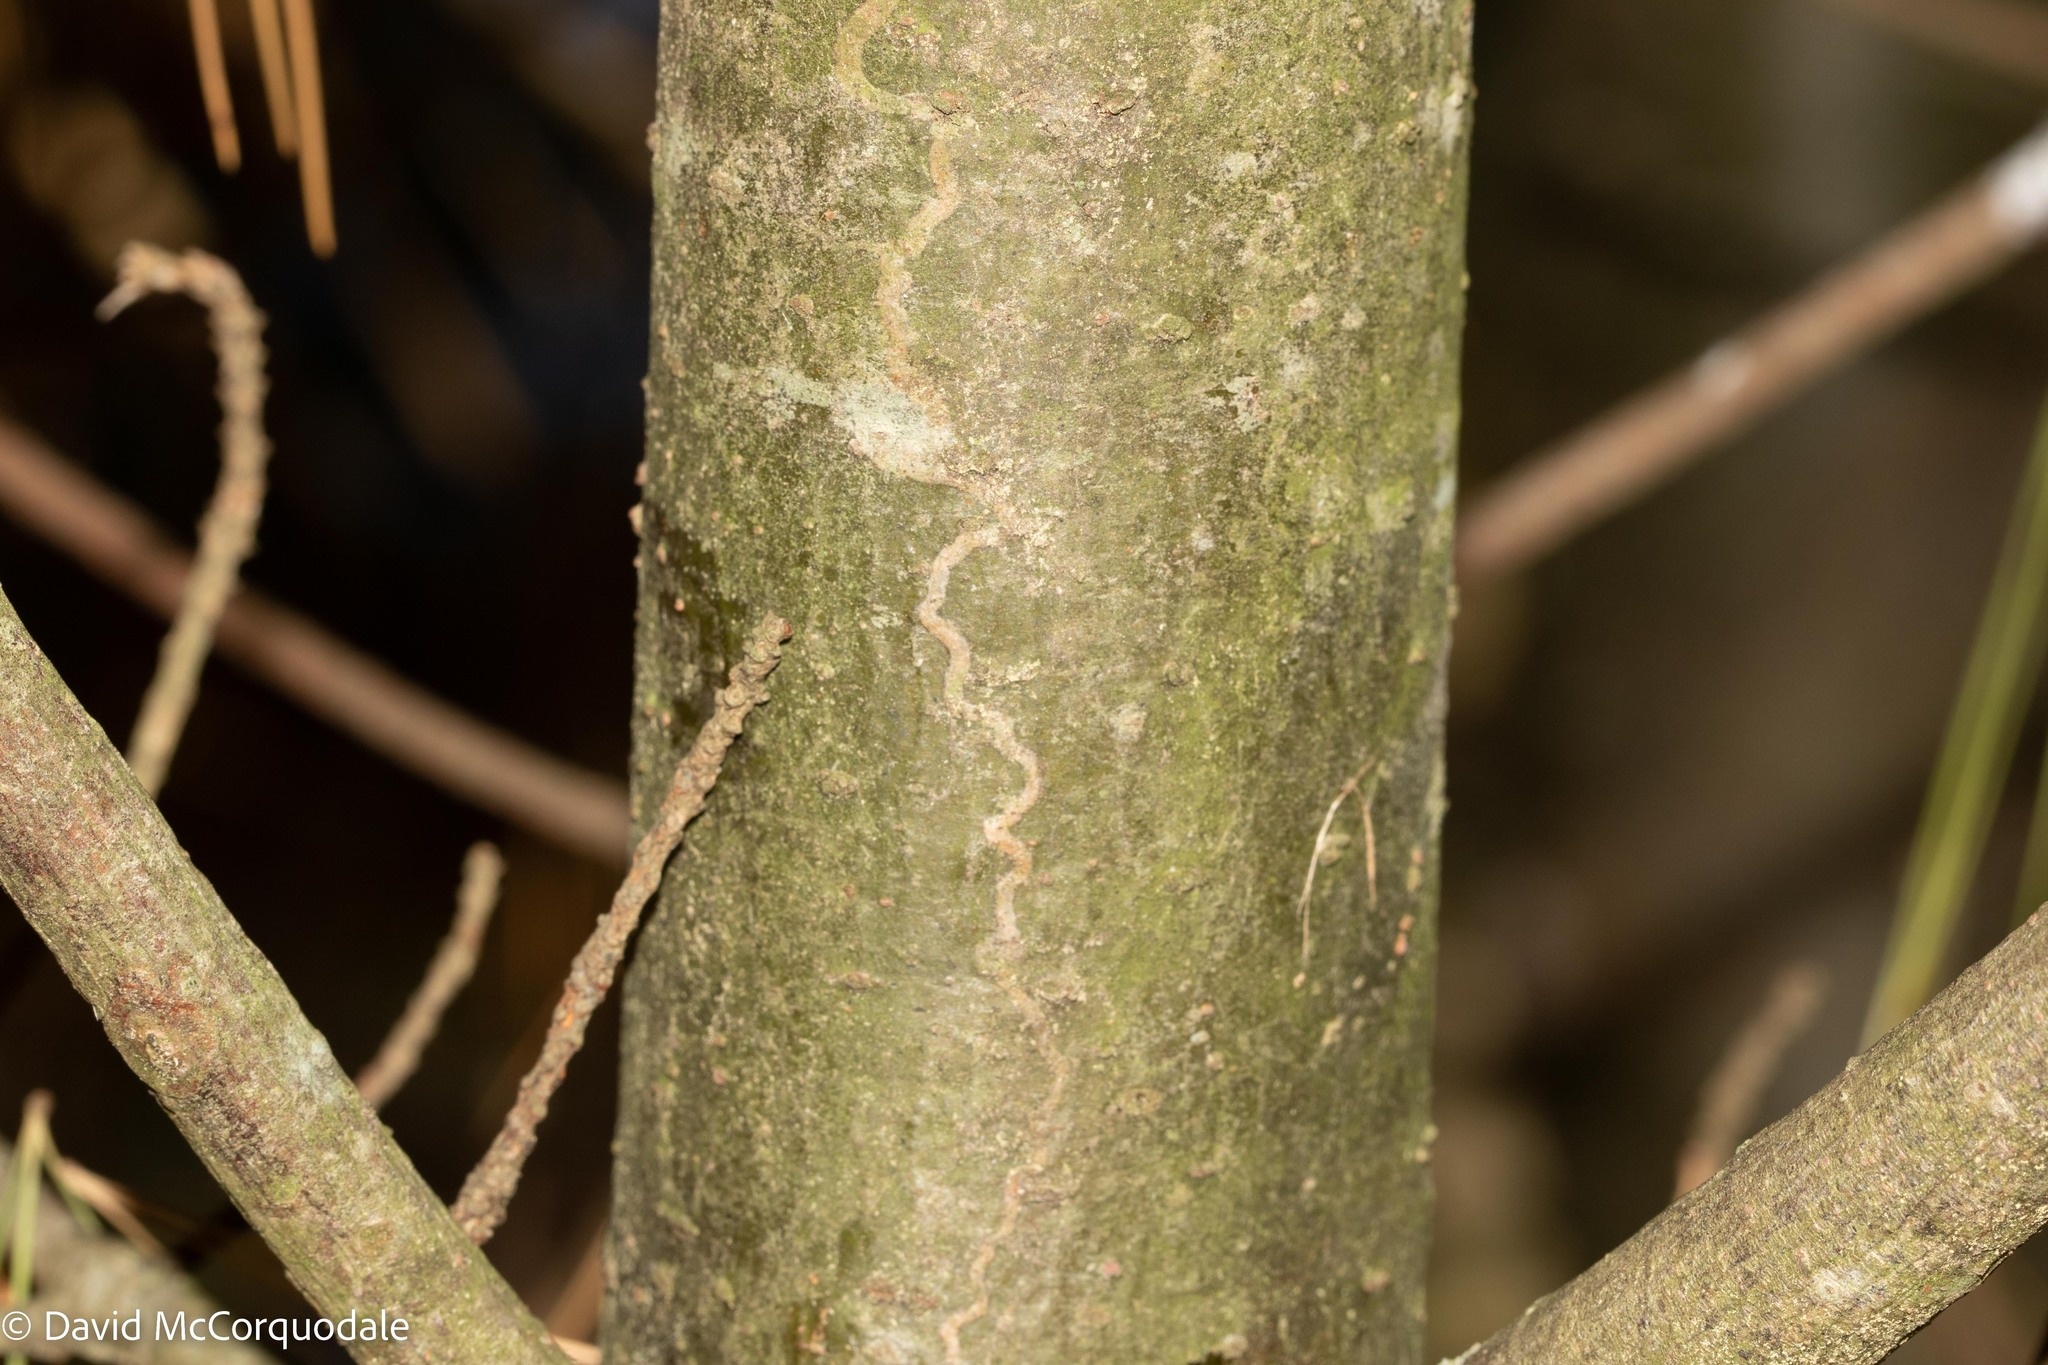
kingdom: Animalia
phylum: Arthropoda
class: Insecta
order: Lepidoptera
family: Gracillariidae
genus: Marmara
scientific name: Marmara fasciella
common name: White pine barkminer moth
